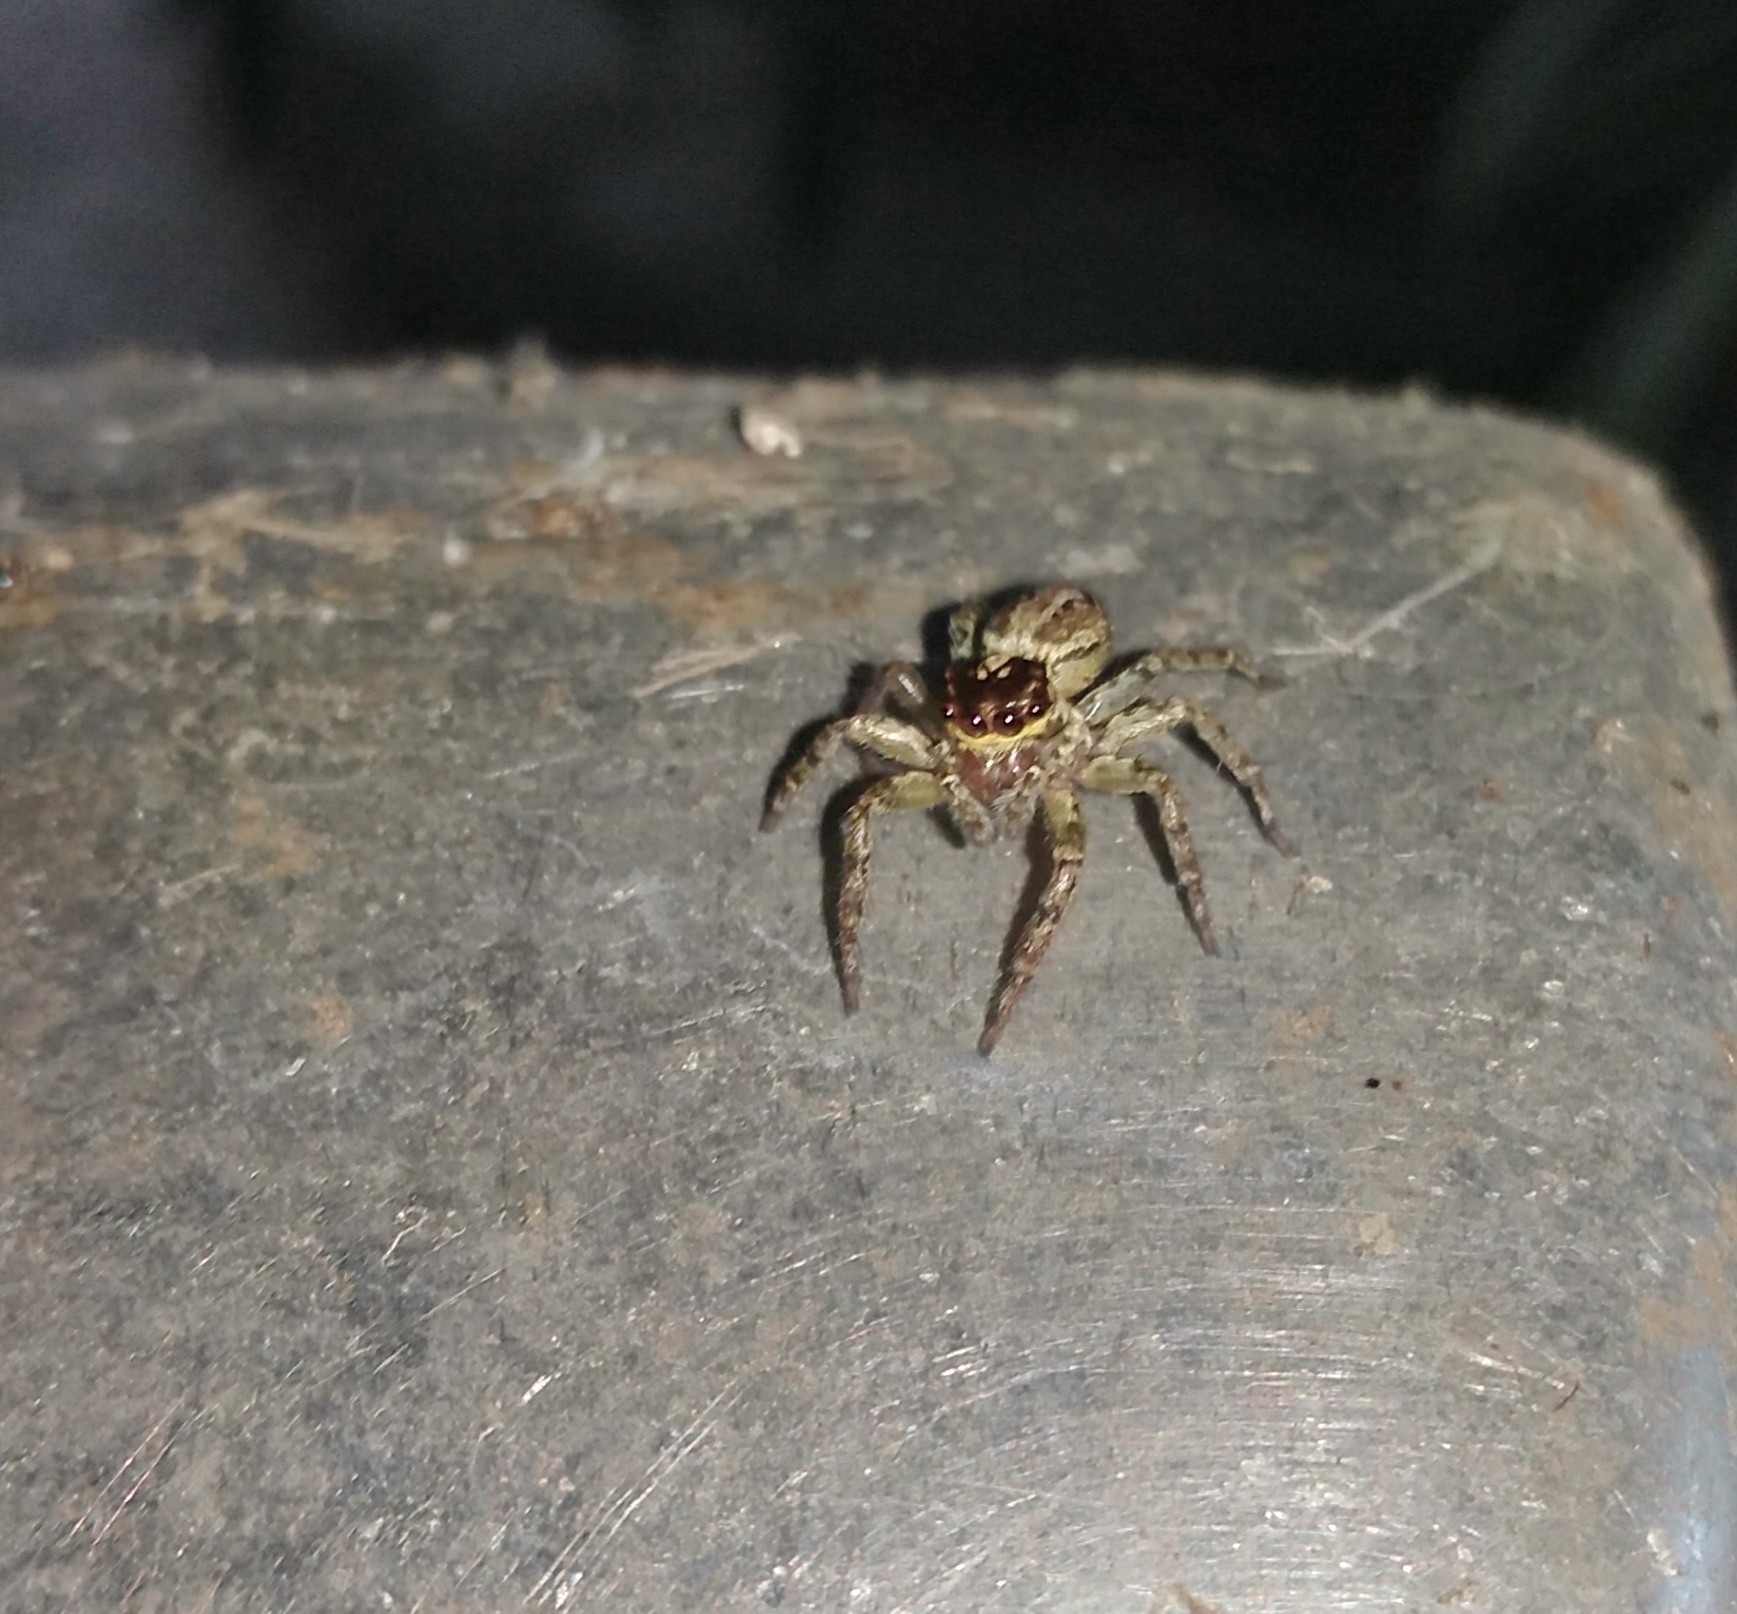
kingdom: Animalia
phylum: Arthropoda
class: Arachnida
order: Araneae
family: Salticidae
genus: Asaphobelis
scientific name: Asaphobelis physonychus
